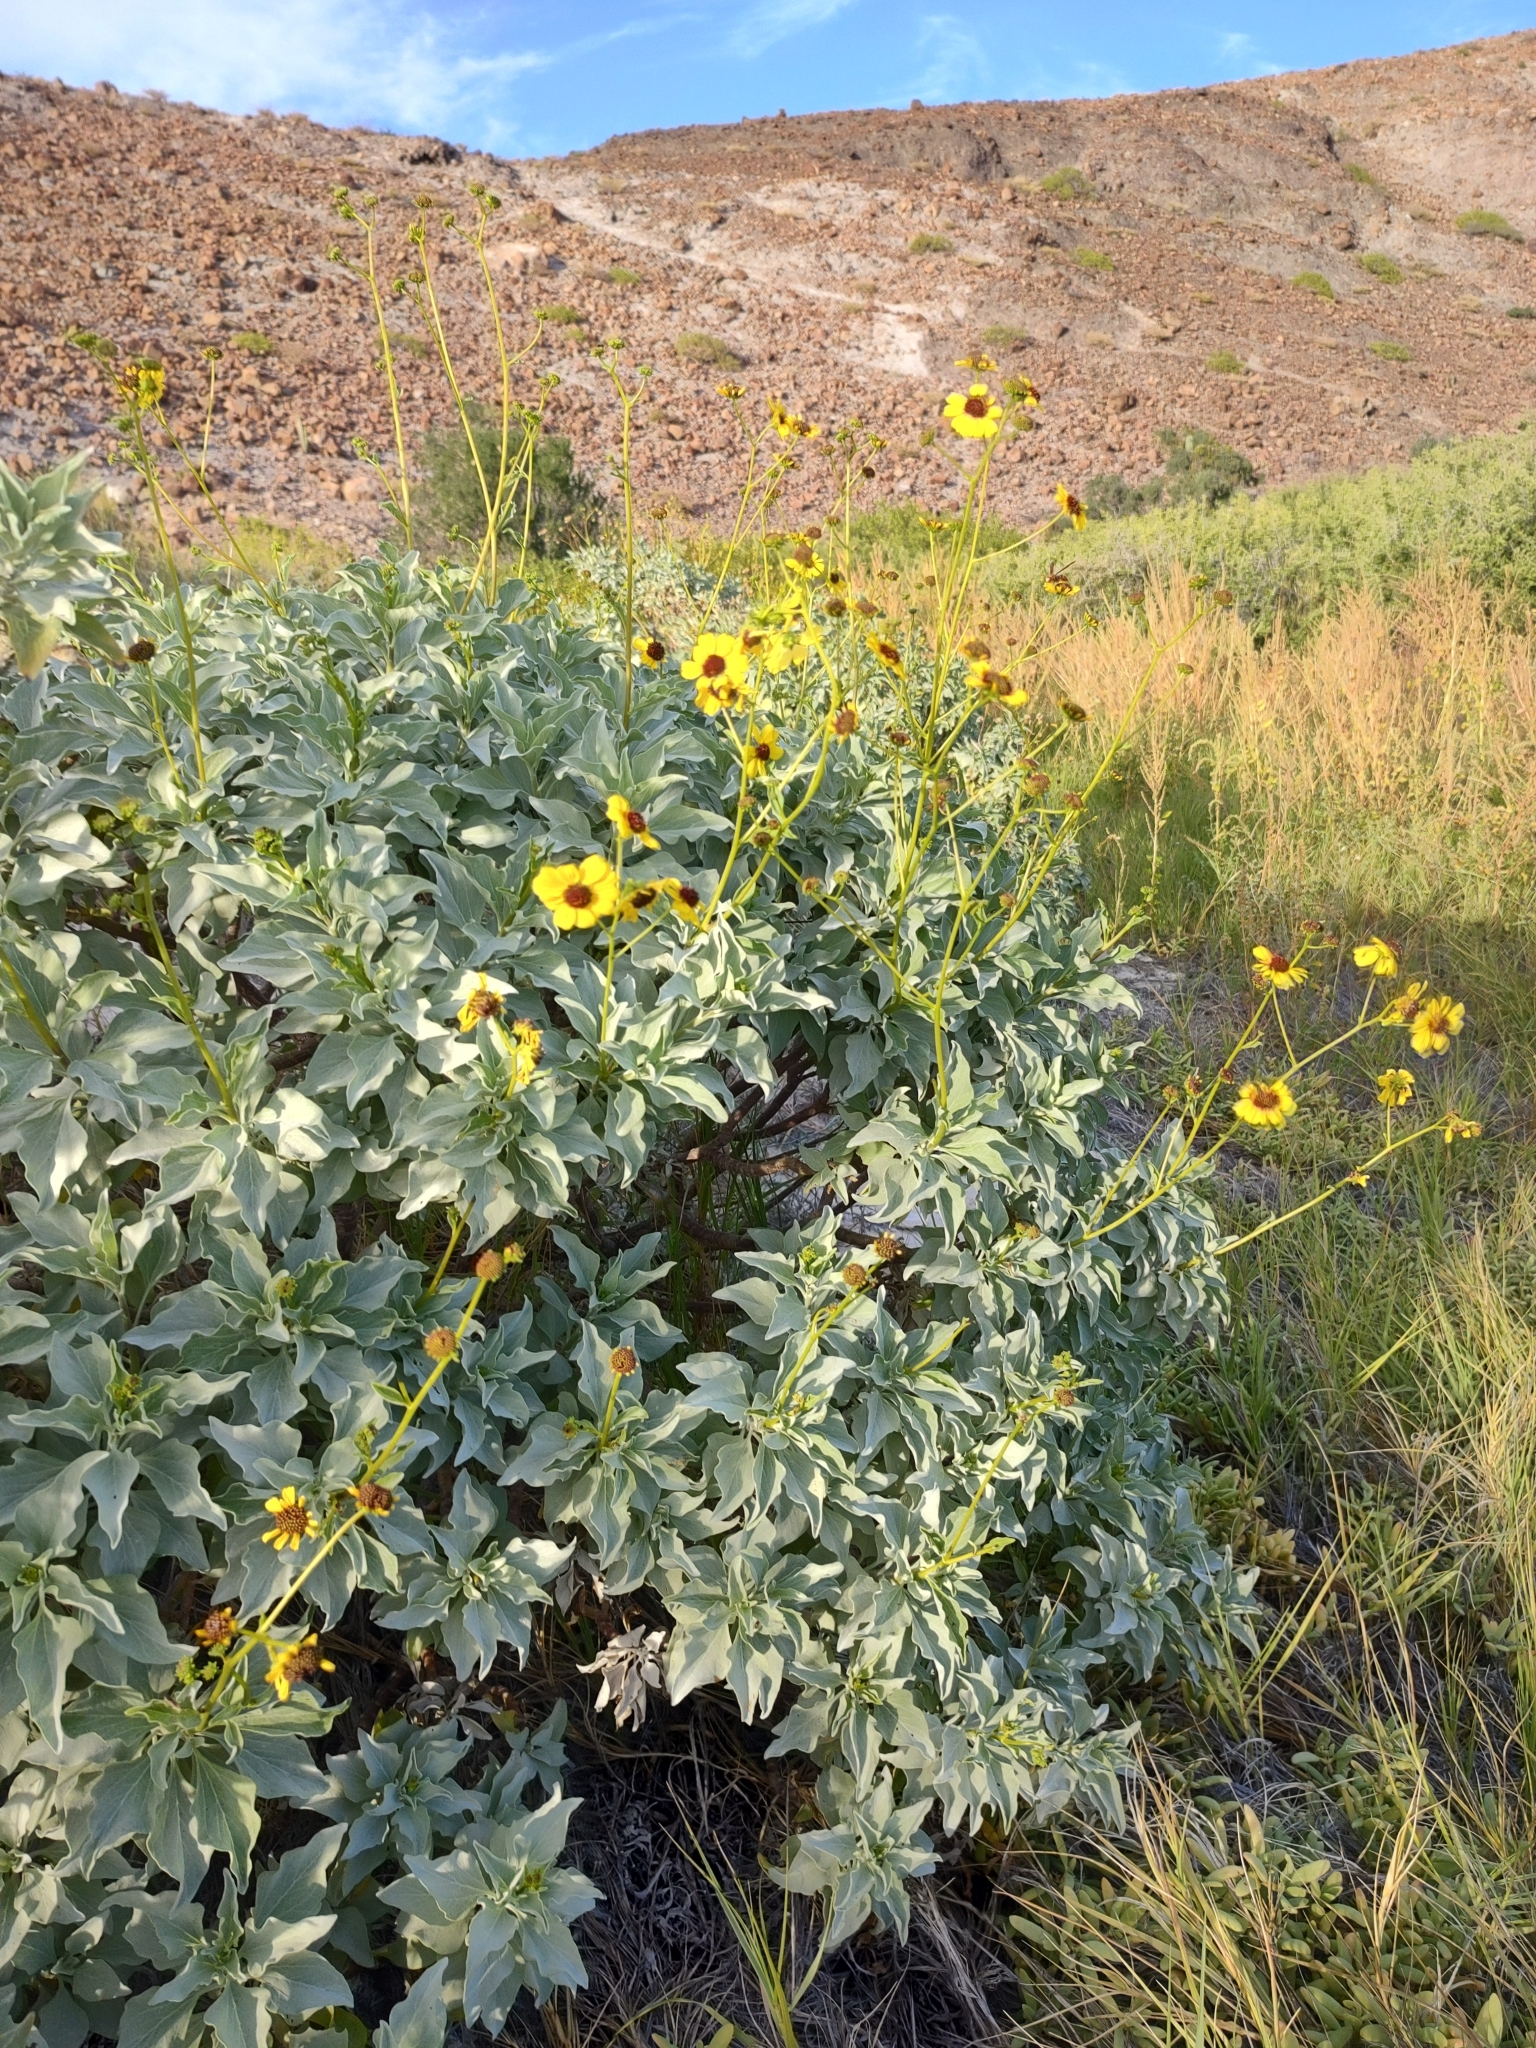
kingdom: Plantae
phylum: Tracheophyta
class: Magnoliopsida
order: Asterales
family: Asteraceae
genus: Encelia
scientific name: Encelia farinosa
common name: Brittlebush
